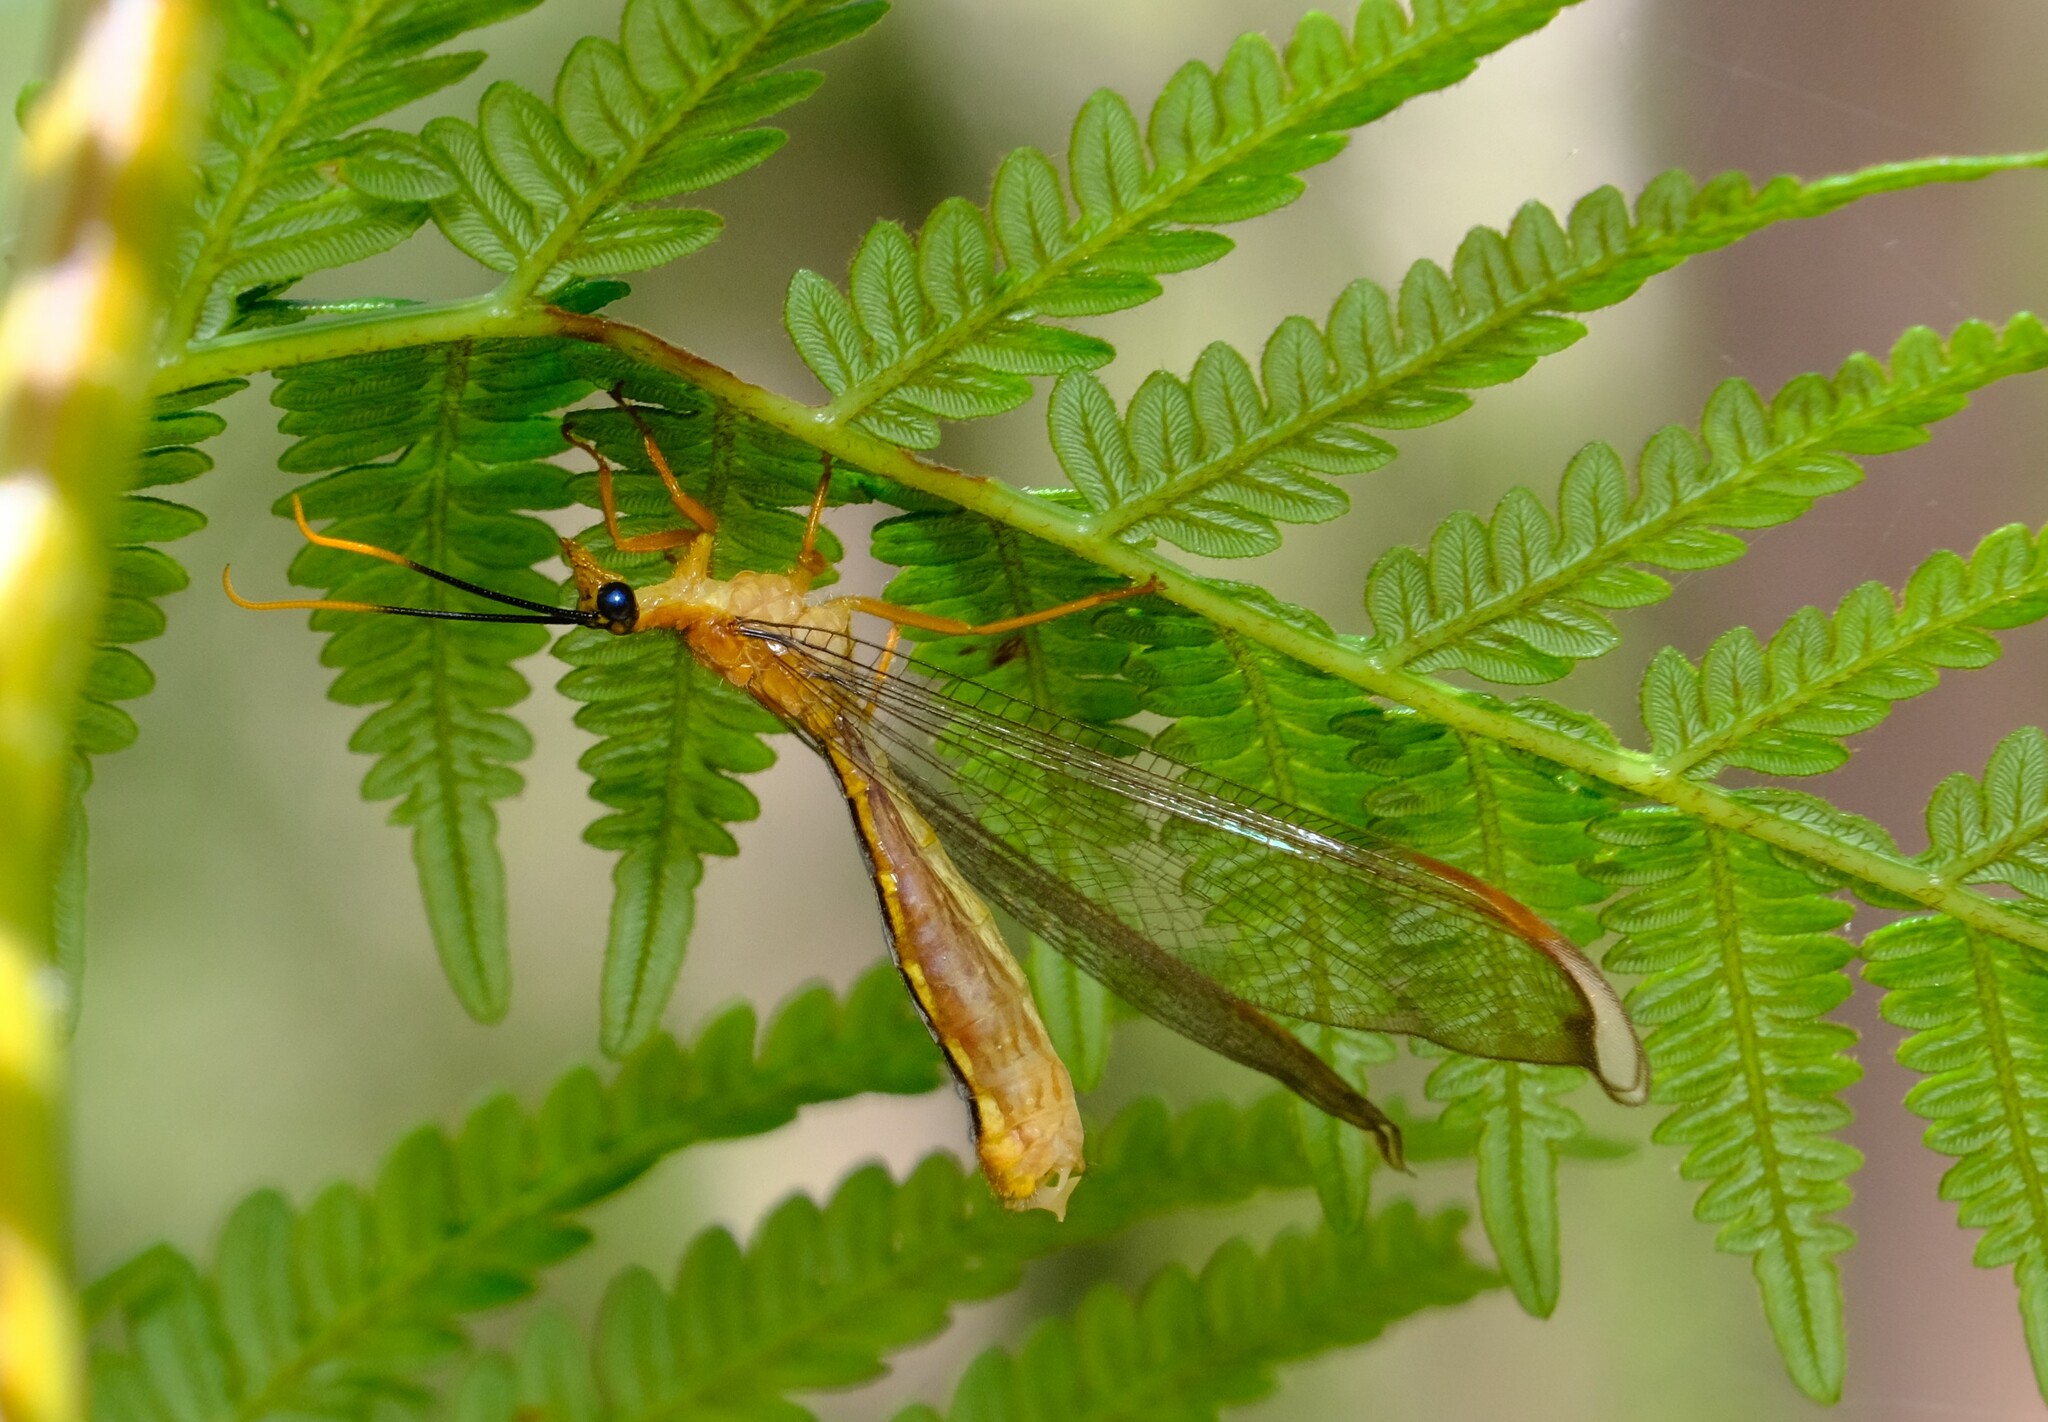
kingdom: Animalia
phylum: Arthropoda
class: Insecta
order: Neuroptera
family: Nymphidae
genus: Nymphes
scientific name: Nymphes myrmeleonoides
